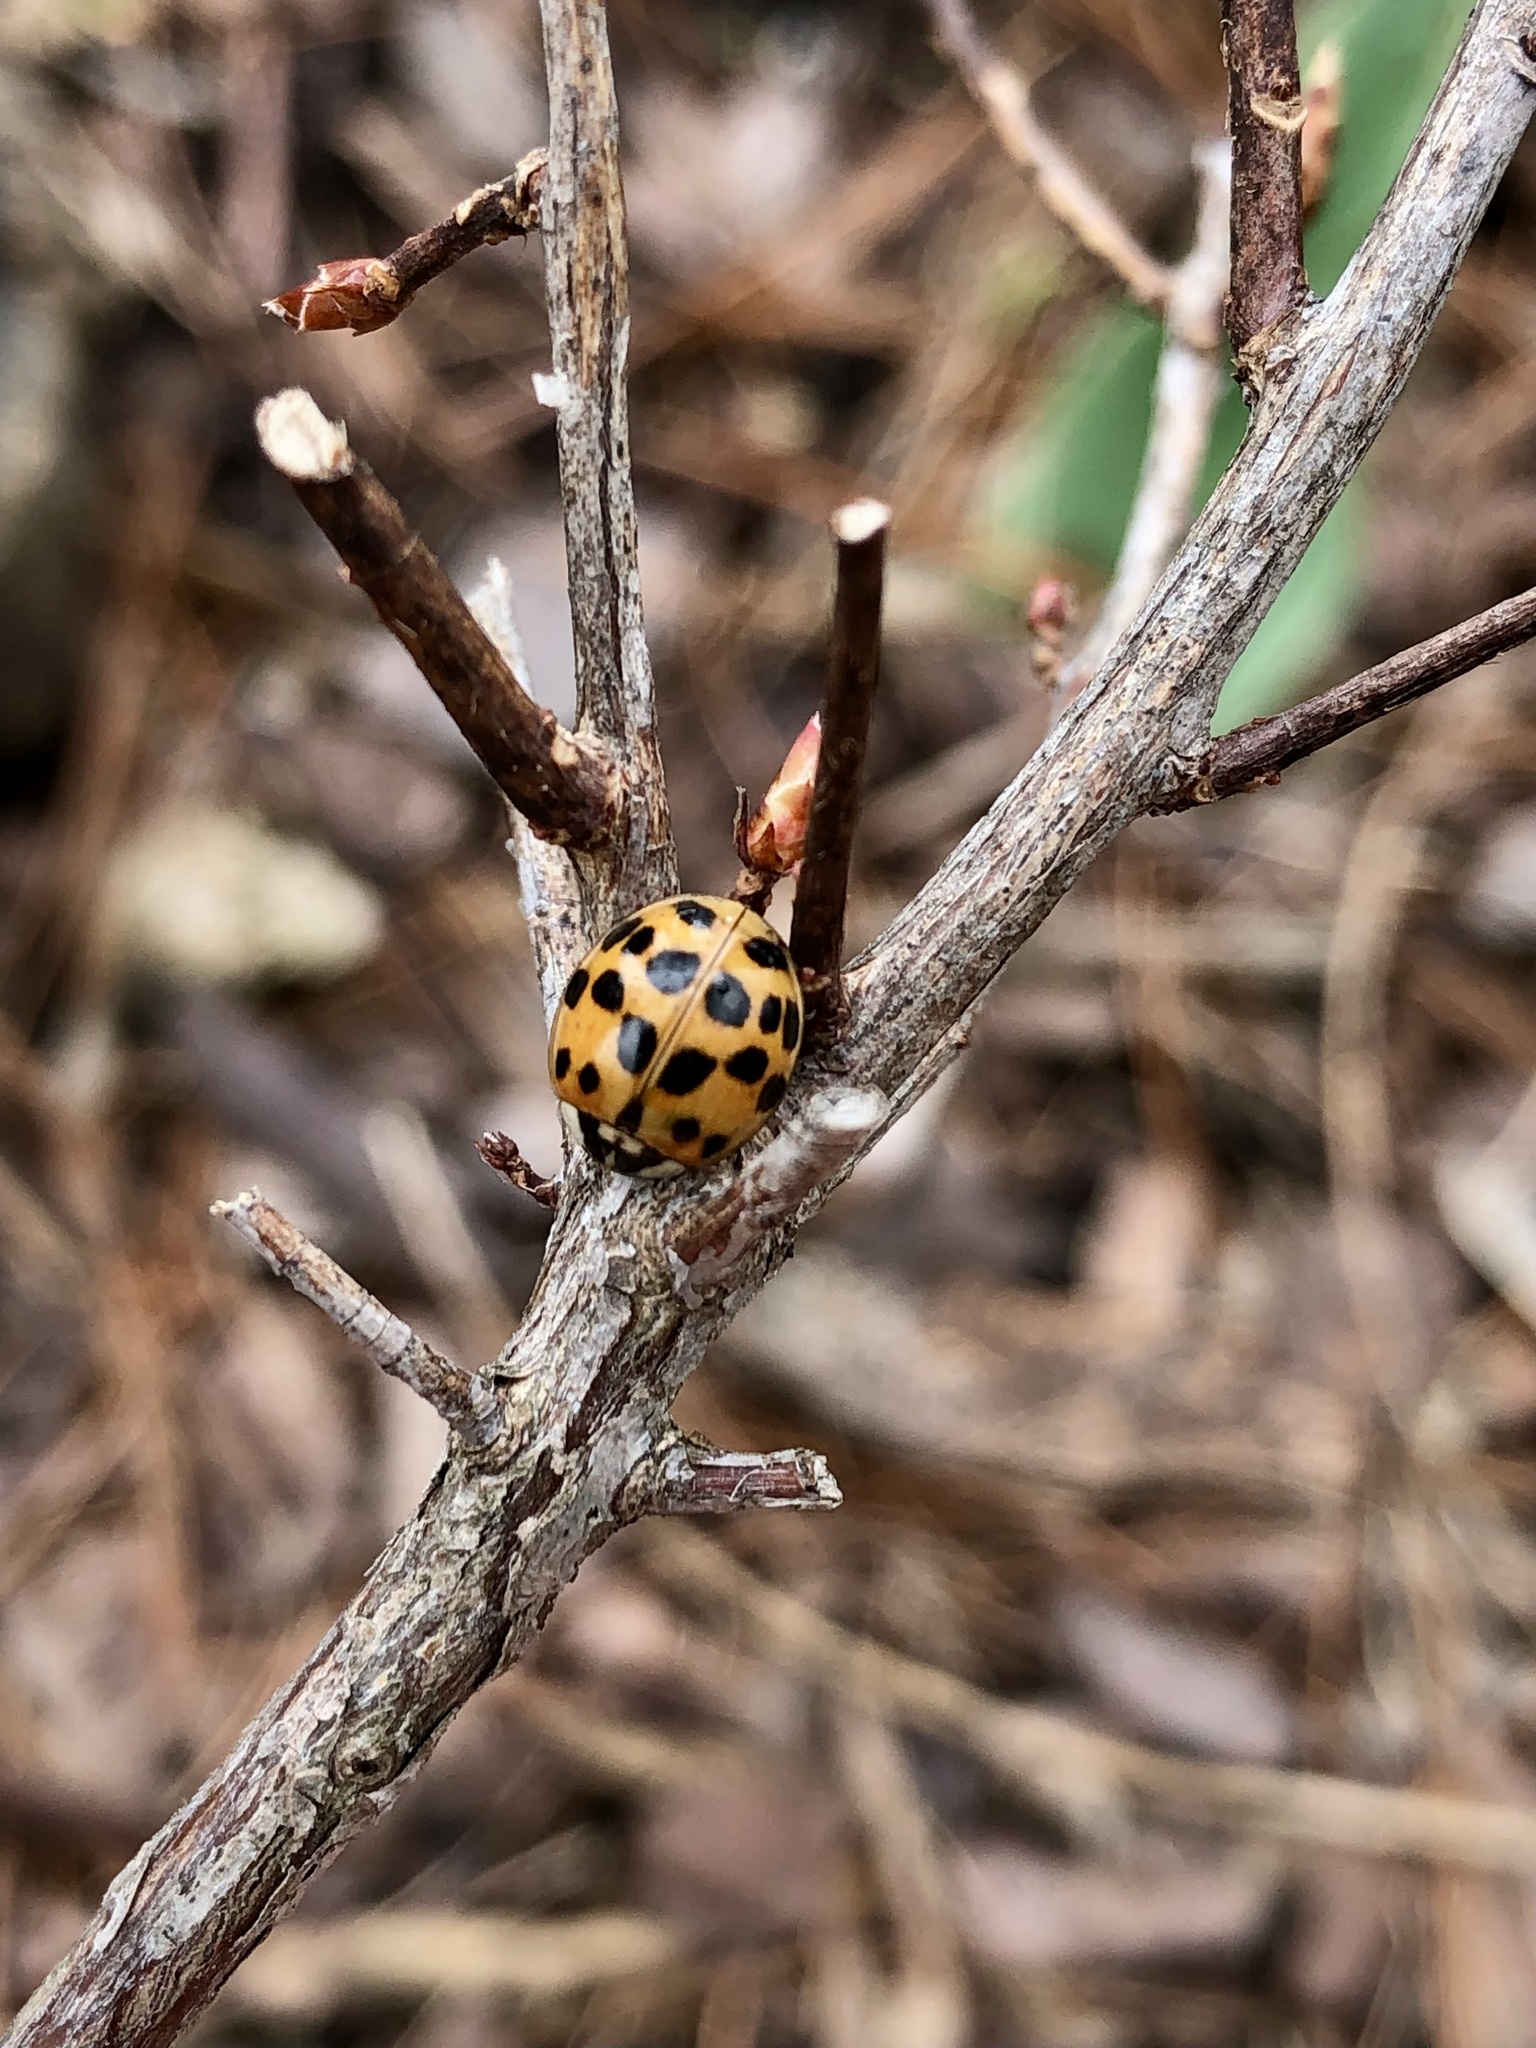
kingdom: Animalia
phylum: Arthropoda
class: Insecta
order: Coleoptera
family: Coccinellidae
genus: Harmonia
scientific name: Harmonia axyridis
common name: Harlequin ladybird
